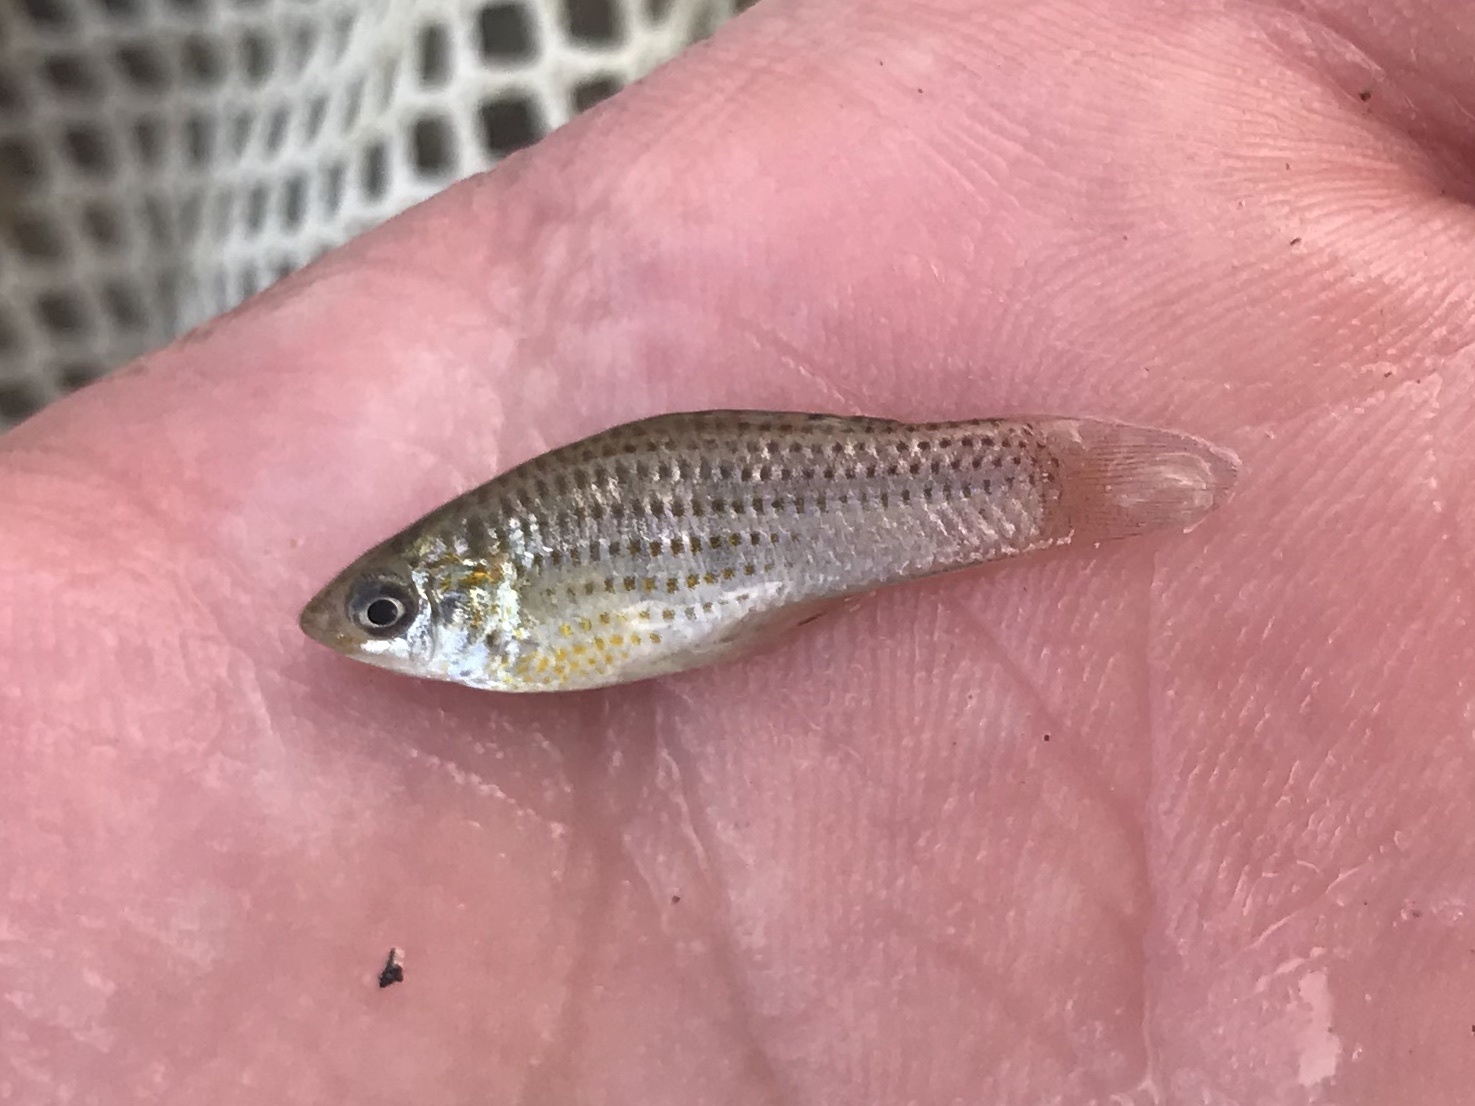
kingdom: Animalia
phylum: Chordata
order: Cyprinodontiformes
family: Poeciliidae
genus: Poecilia
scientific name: Poecilia latipinna
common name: Sailfin molly
